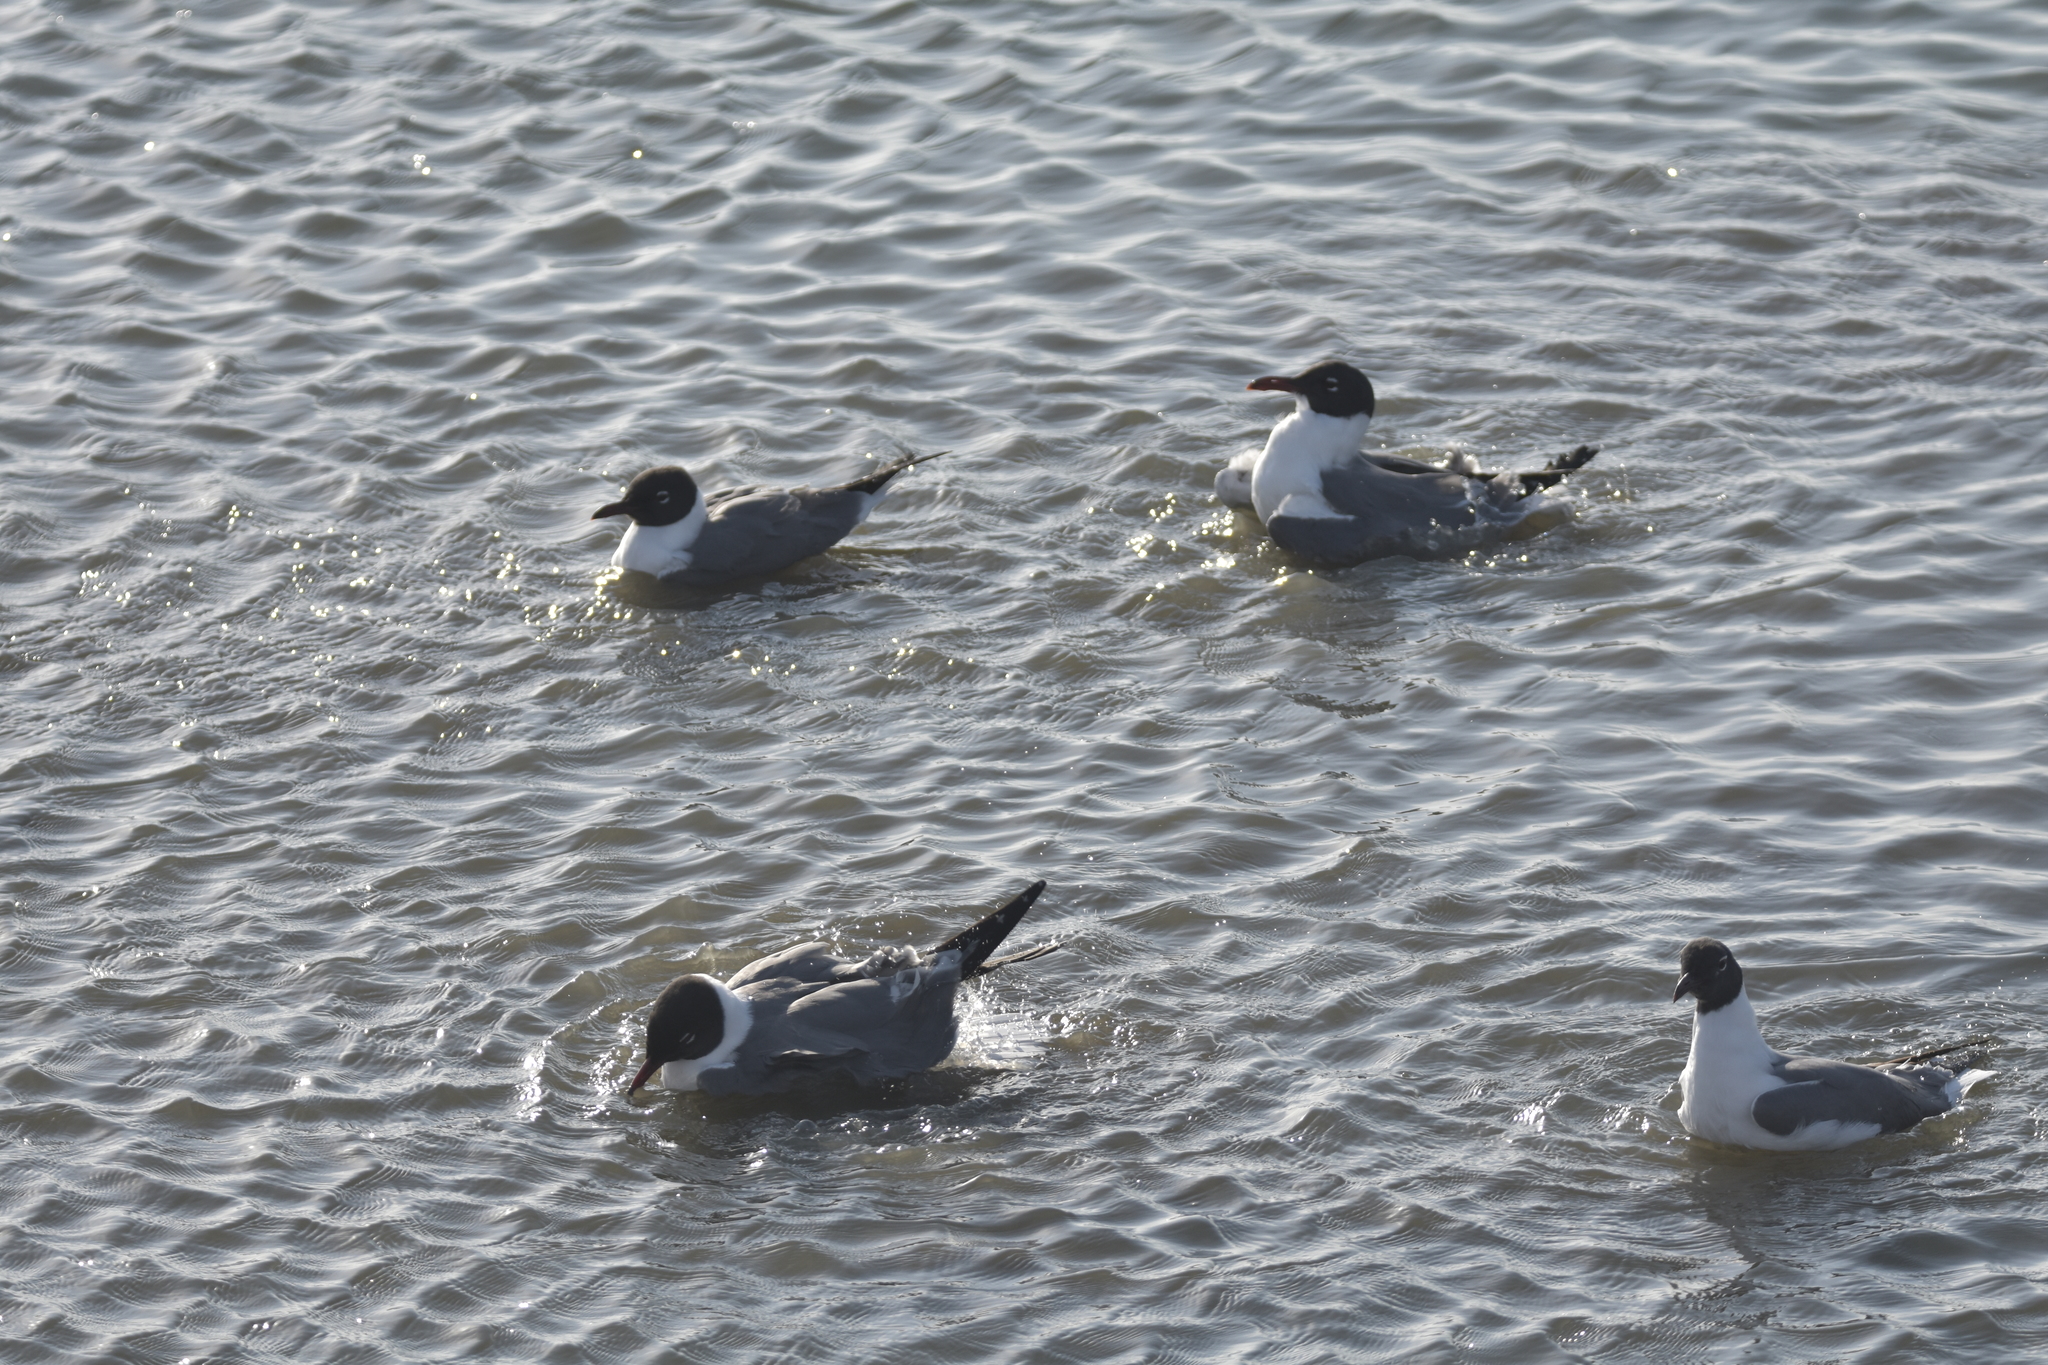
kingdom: Animalia
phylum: Chordata
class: Aves
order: Charadriiformes
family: Laridae
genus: Leucophaeus
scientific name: Leucophaeus atricilla
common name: Laughing gull
